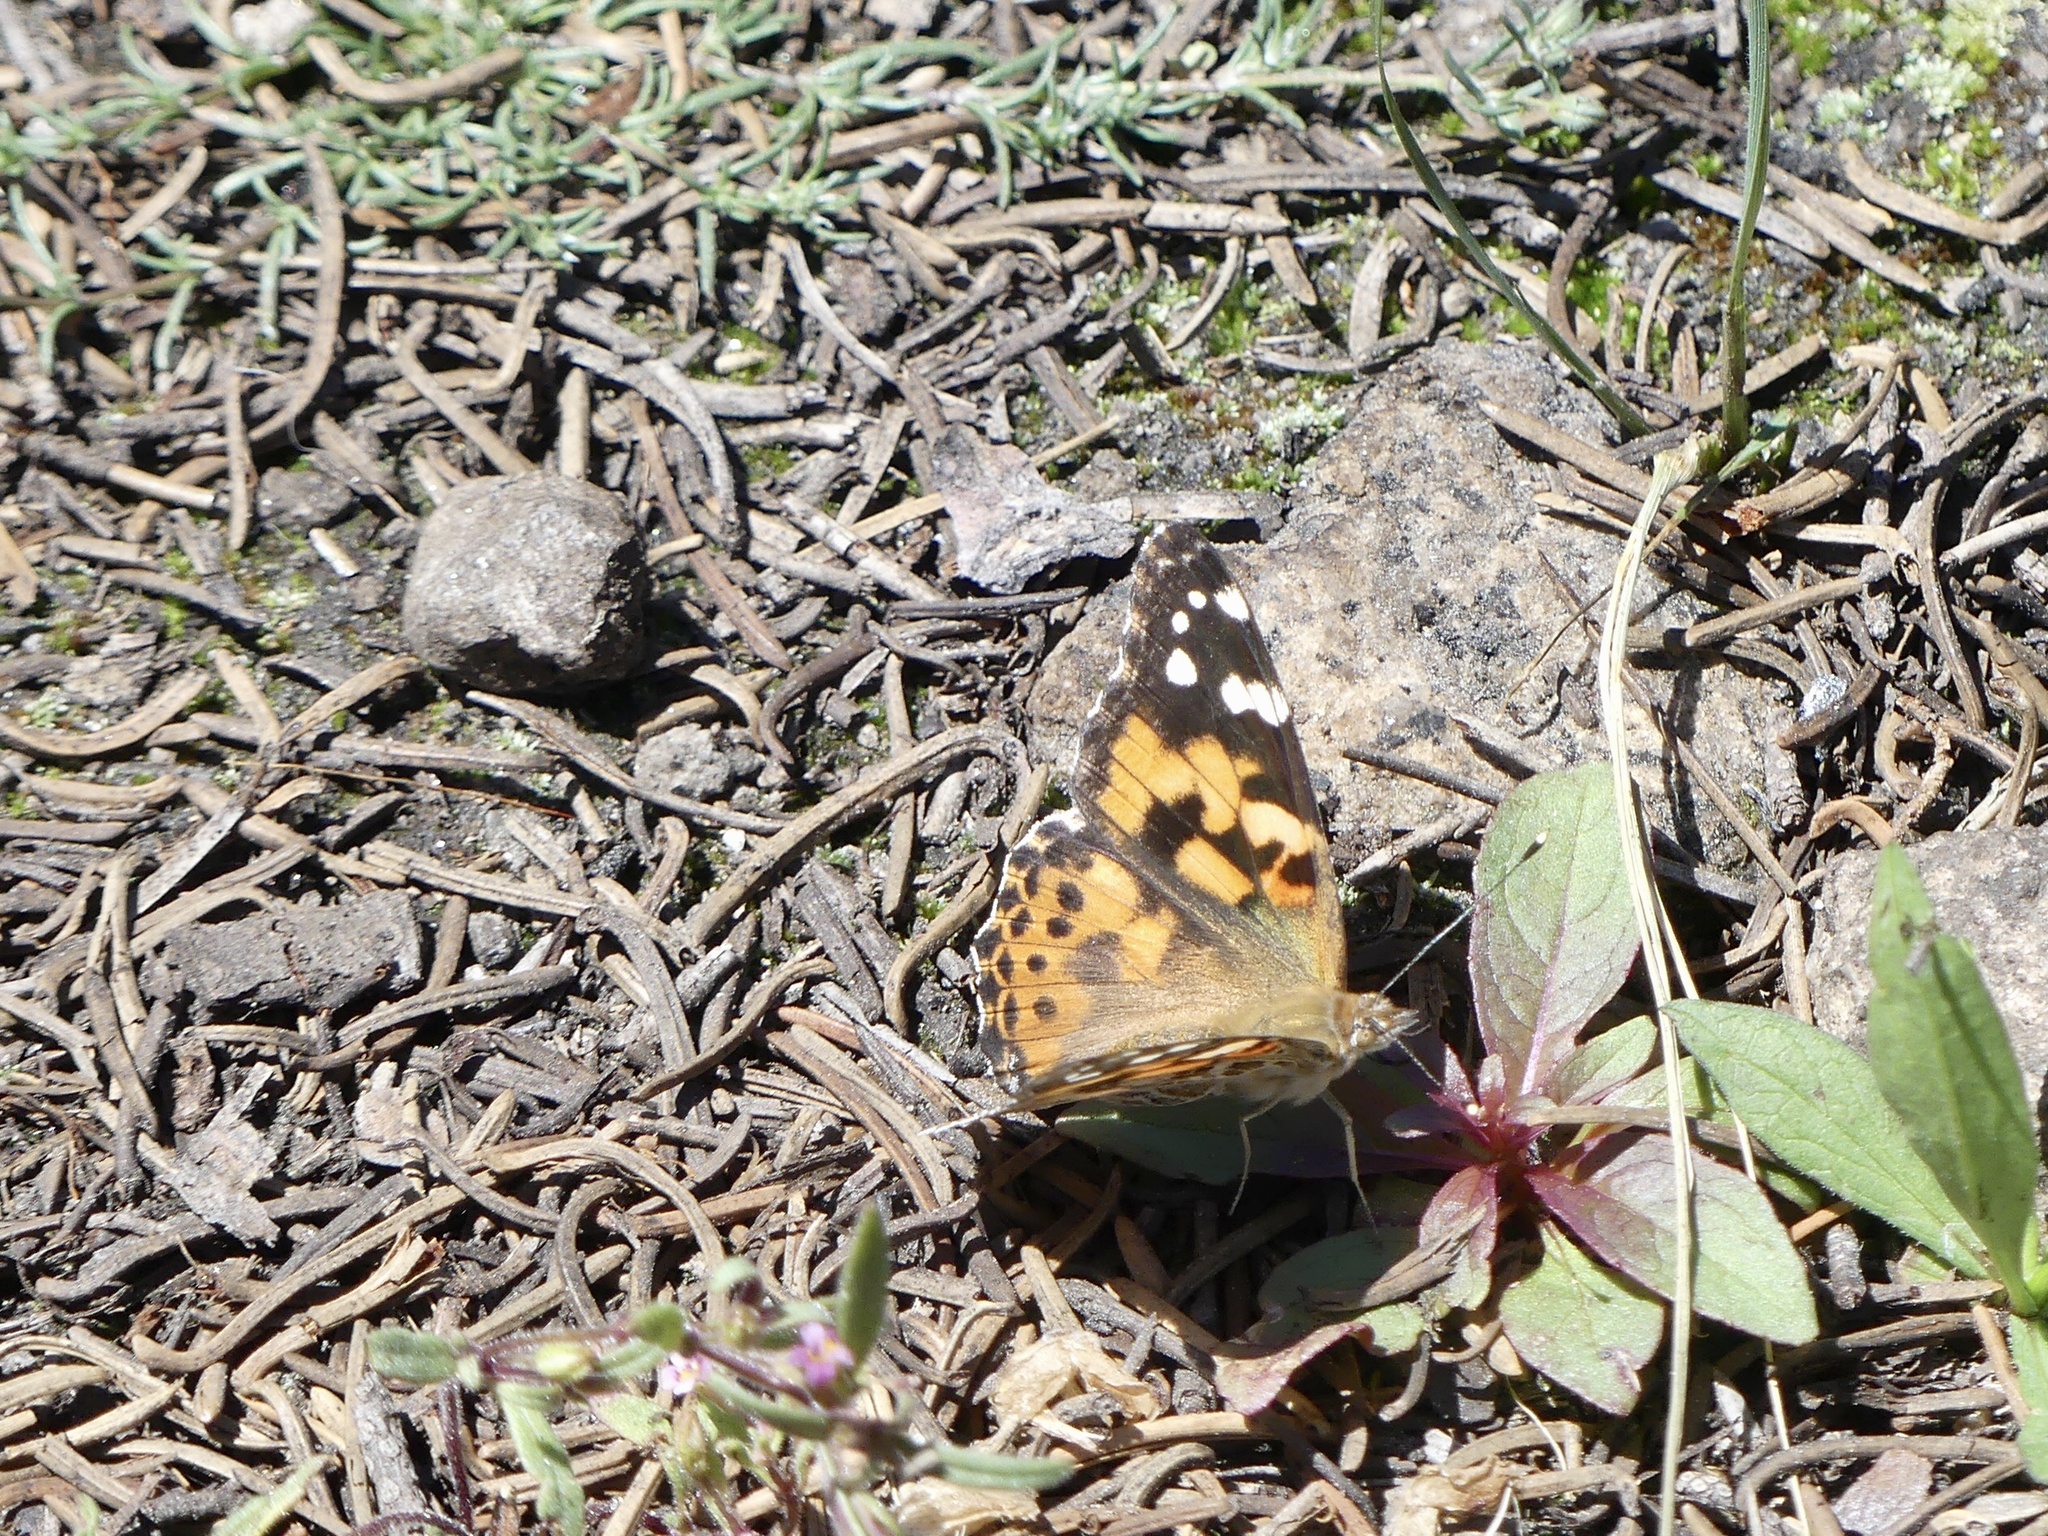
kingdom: Animalia
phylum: Arthropoda
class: Insecta
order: Lepidoptera
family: Nymphalidae
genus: Vanessa
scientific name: Vanessa cardui
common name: Painted lady
